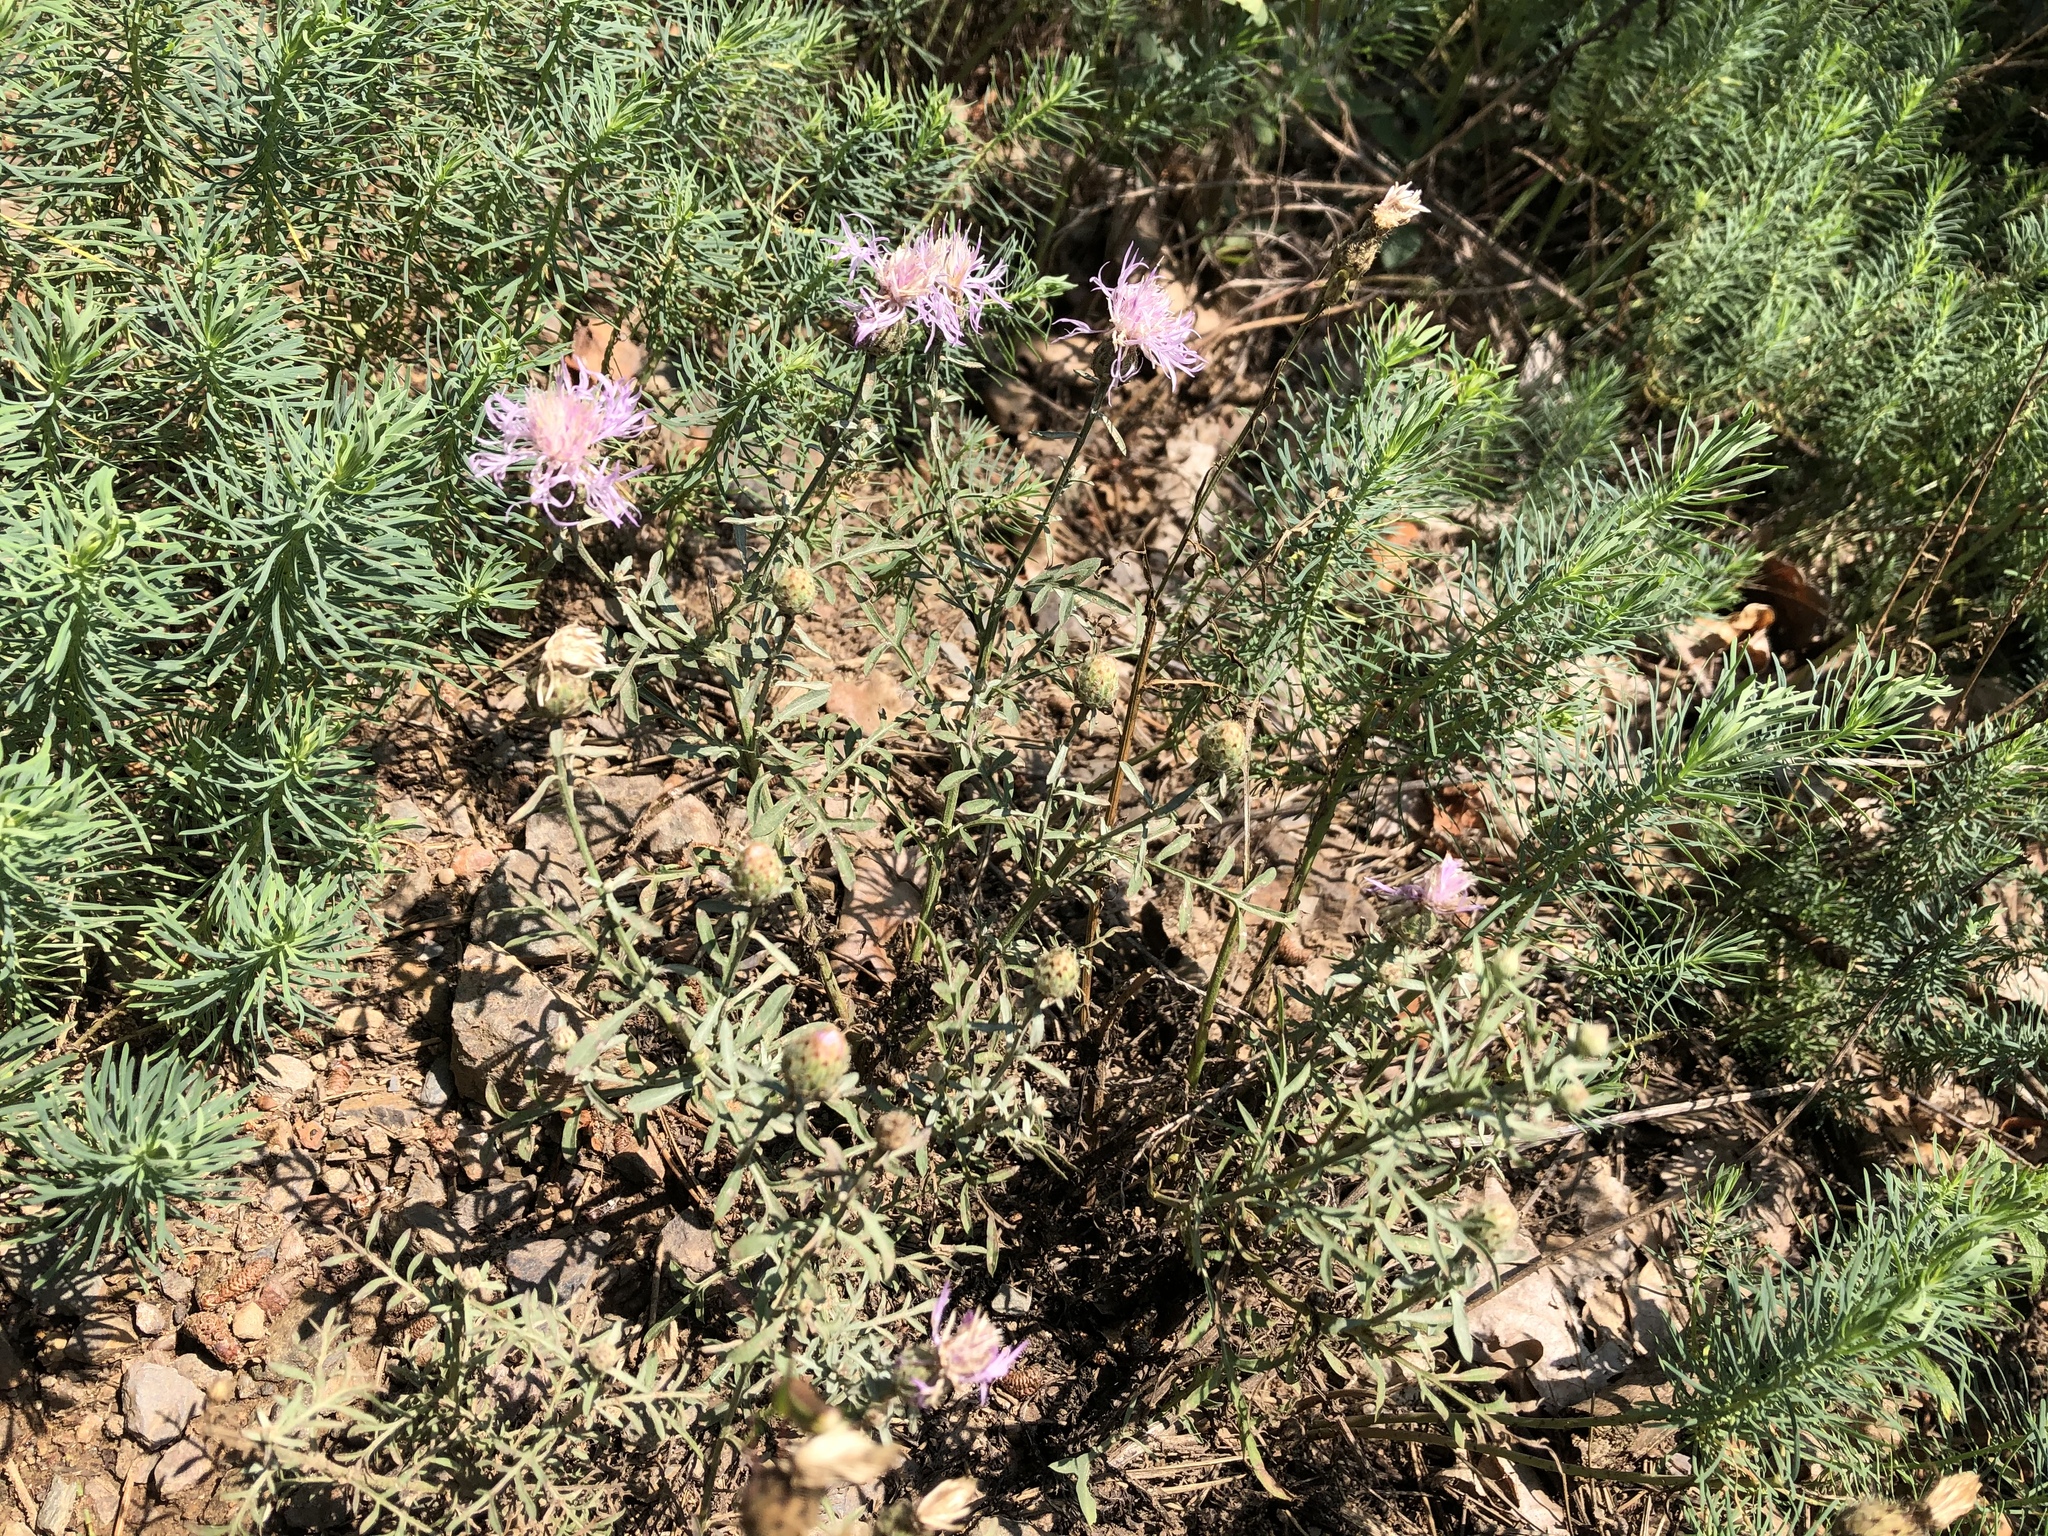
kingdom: Plantae
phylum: Tracheophyta
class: Magnoliopsida
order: Asterales
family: Asteraceae
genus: Centaurea
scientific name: Centaurea stoebe
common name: Spotted knapweed
